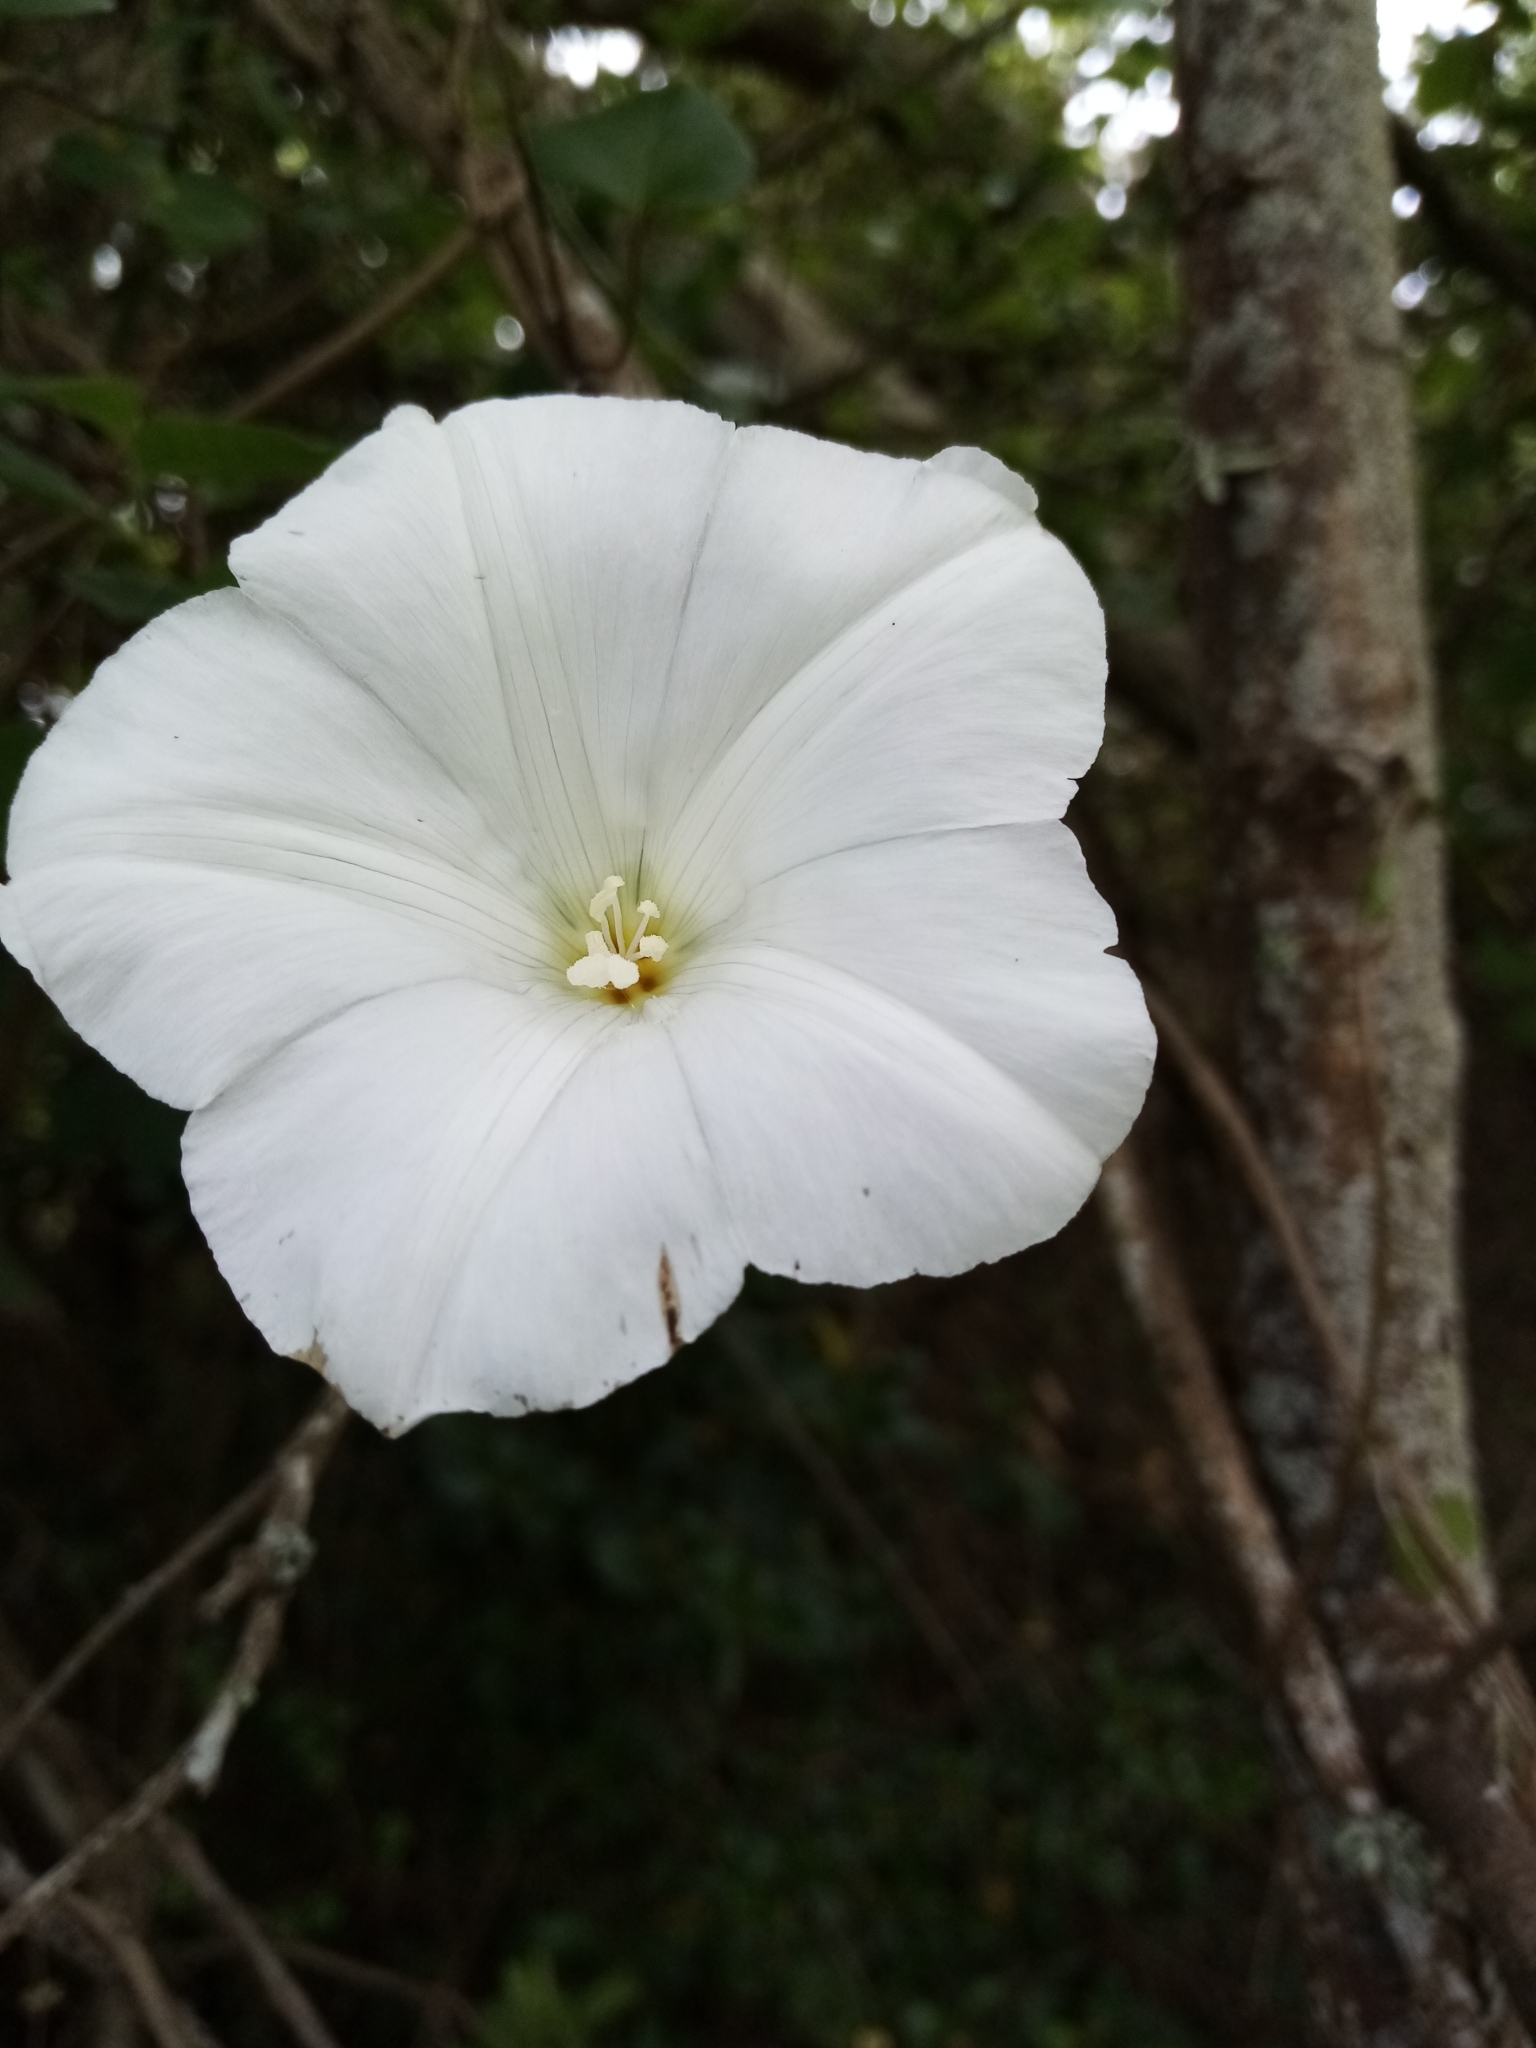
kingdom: Plantae
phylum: Tracheophyta
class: Magnoliopsida
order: Solanales
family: Convolvulaceae
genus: Calystegia
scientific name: Calystegia tuguriorum
